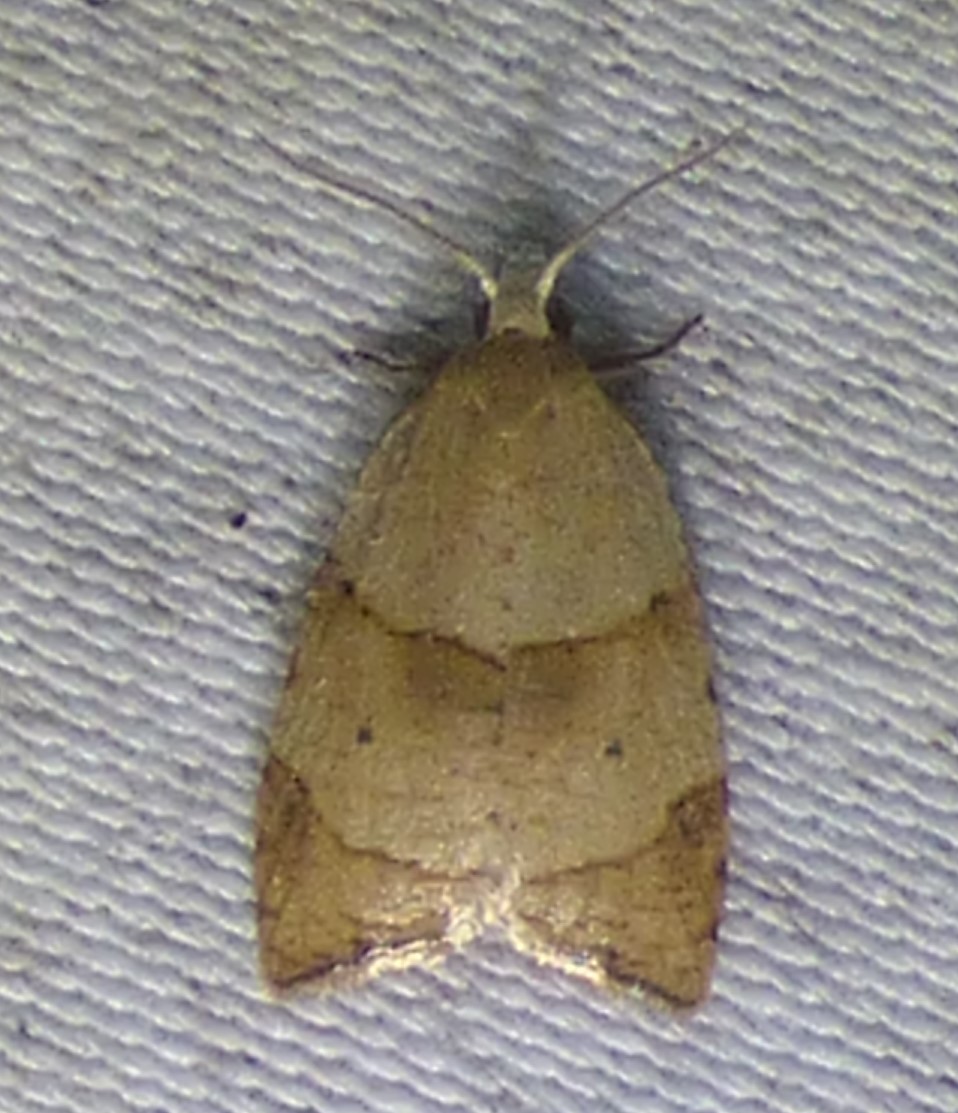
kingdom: Animalia
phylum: Arthropoda
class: Insecta
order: Lepidoptera
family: Tortricidae
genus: Coelostathma
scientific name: Coelostathma discopunctana
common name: Batman moth
